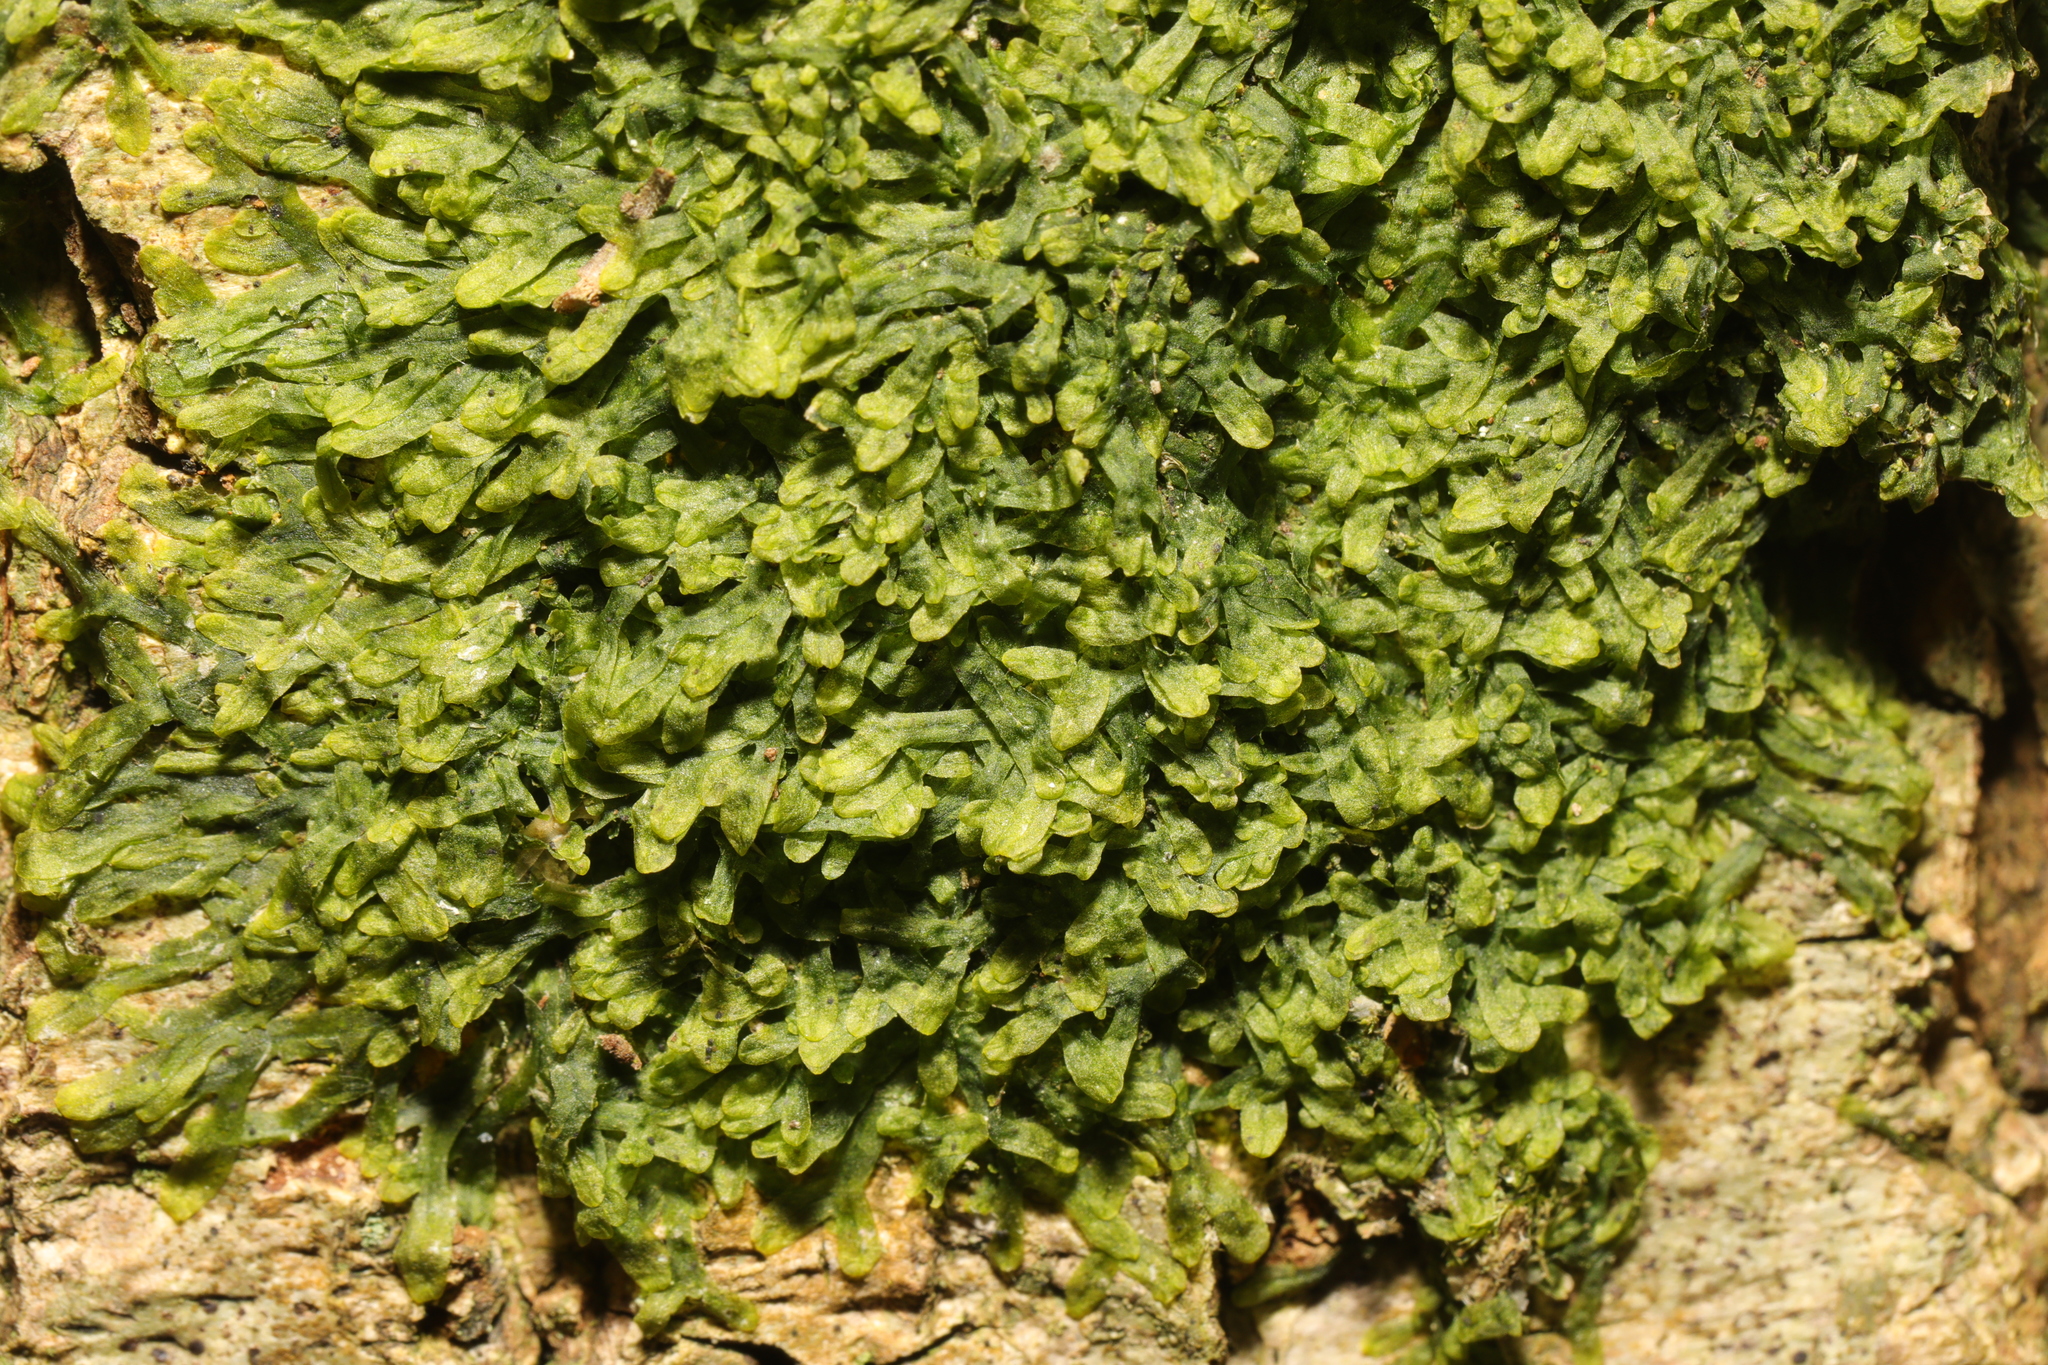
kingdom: Plantae
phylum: Marchantiophyta
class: Jungermanniopsida
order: Metzgeriales
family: Metzgeriaceae
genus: Metzgeria
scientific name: Metzgeria furcata
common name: Forked veilwort
